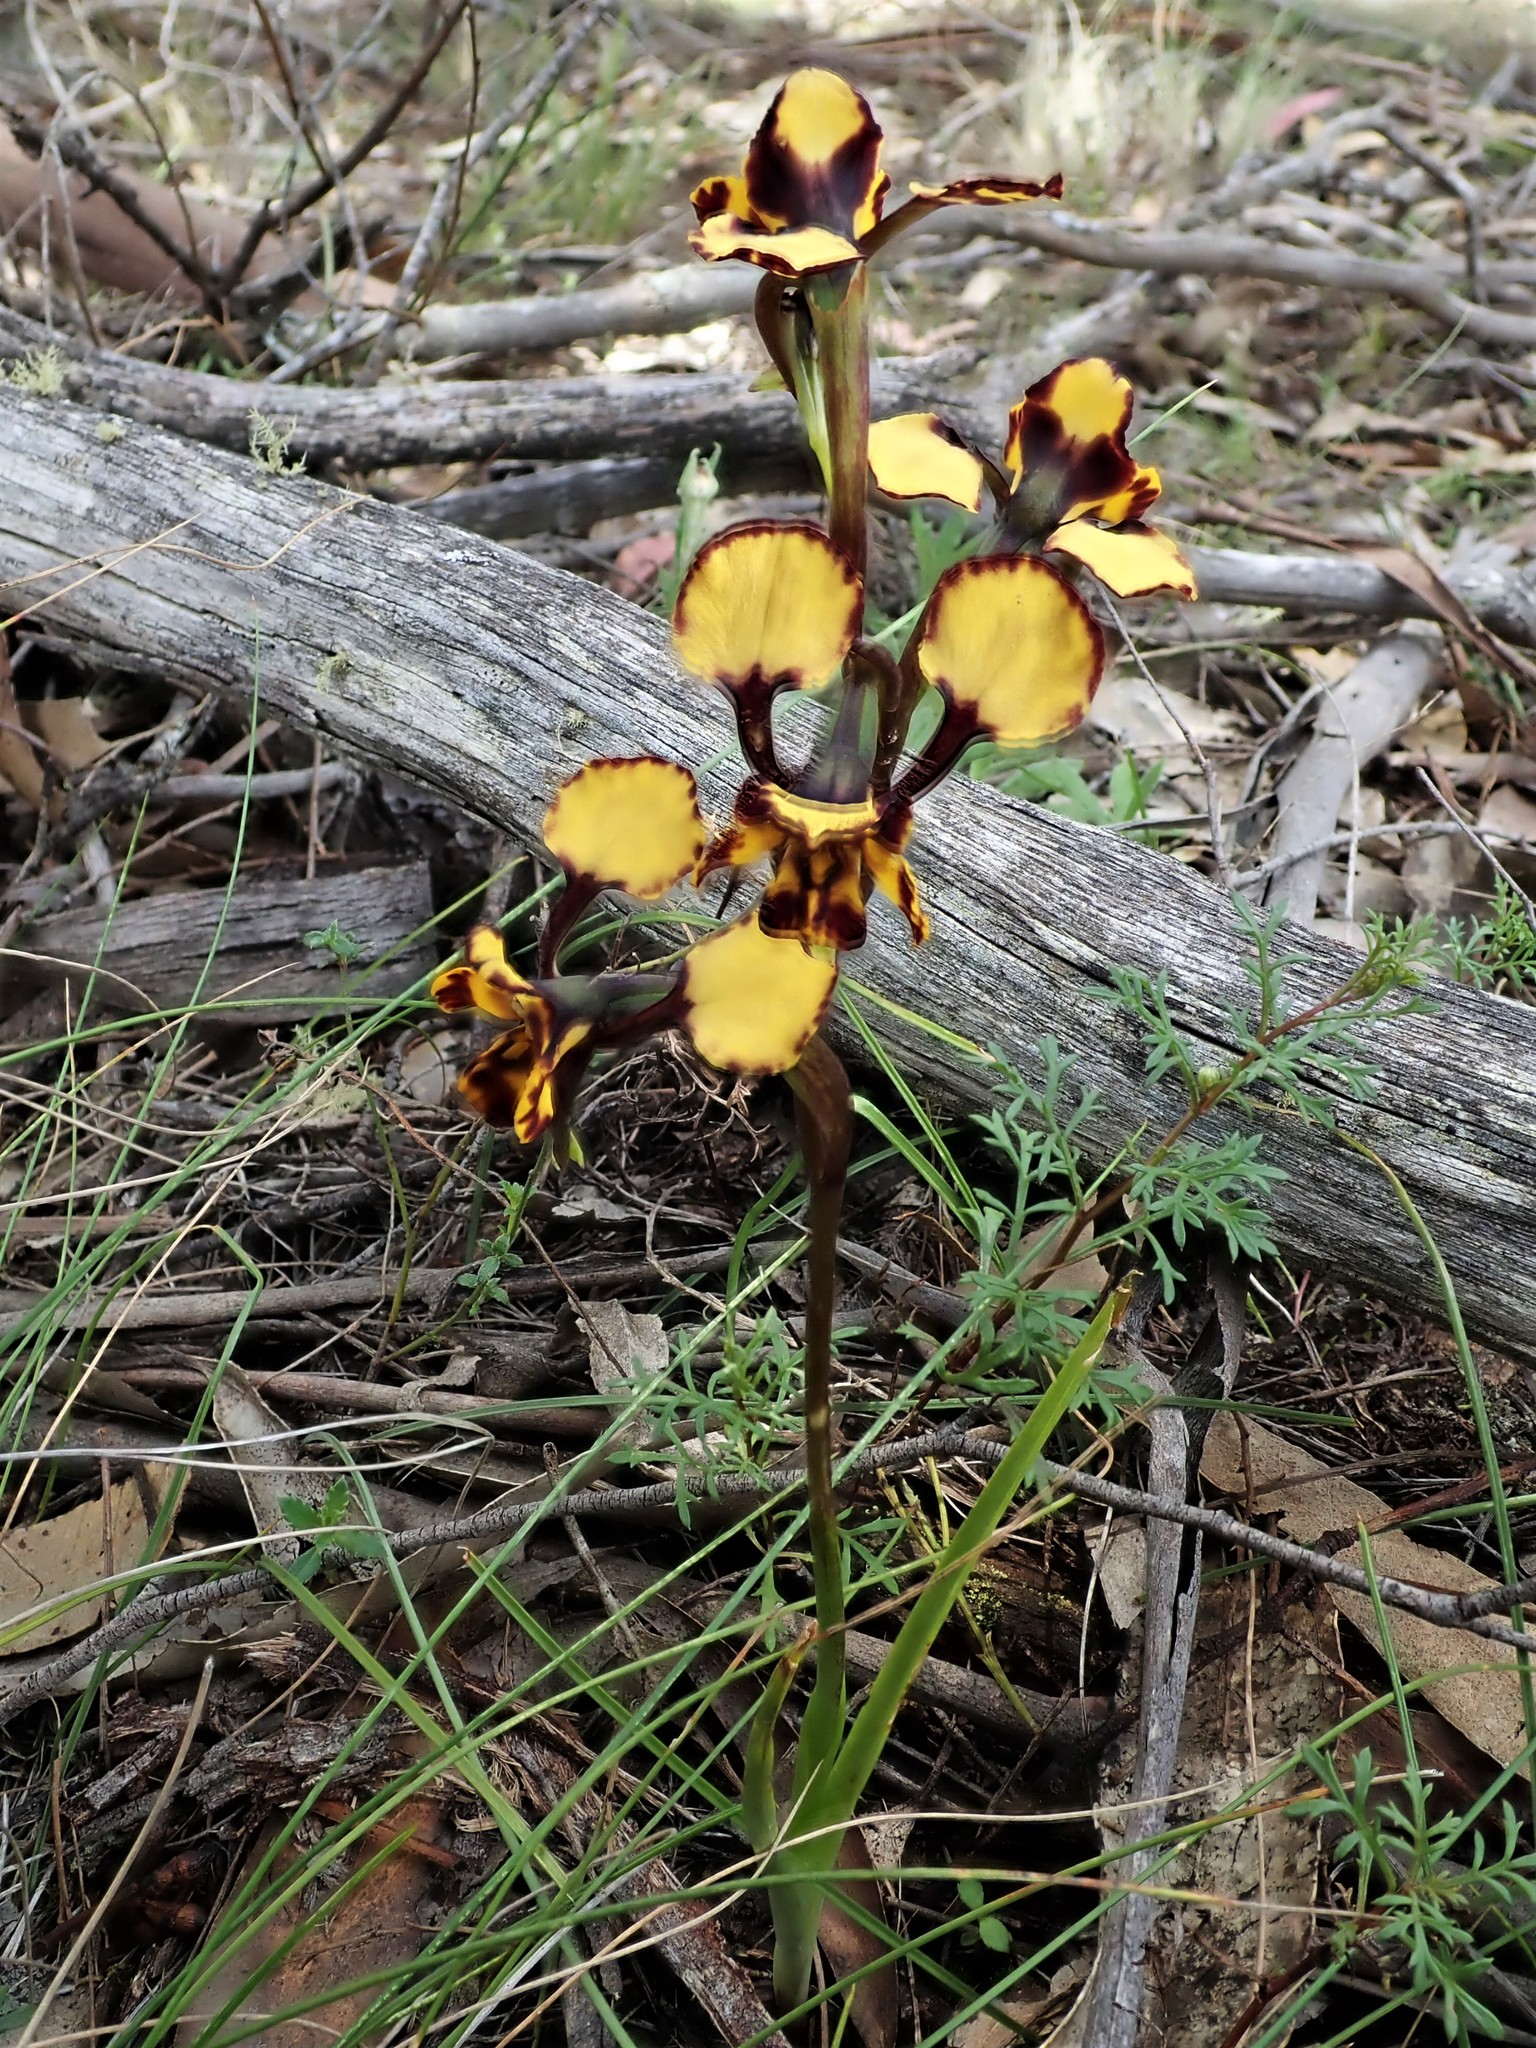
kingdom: Plantae
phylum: Tracheophyta
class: Liliopsida
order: Asparagales
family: Orchidaceae
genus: Diuris
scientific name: Diuris pardina
